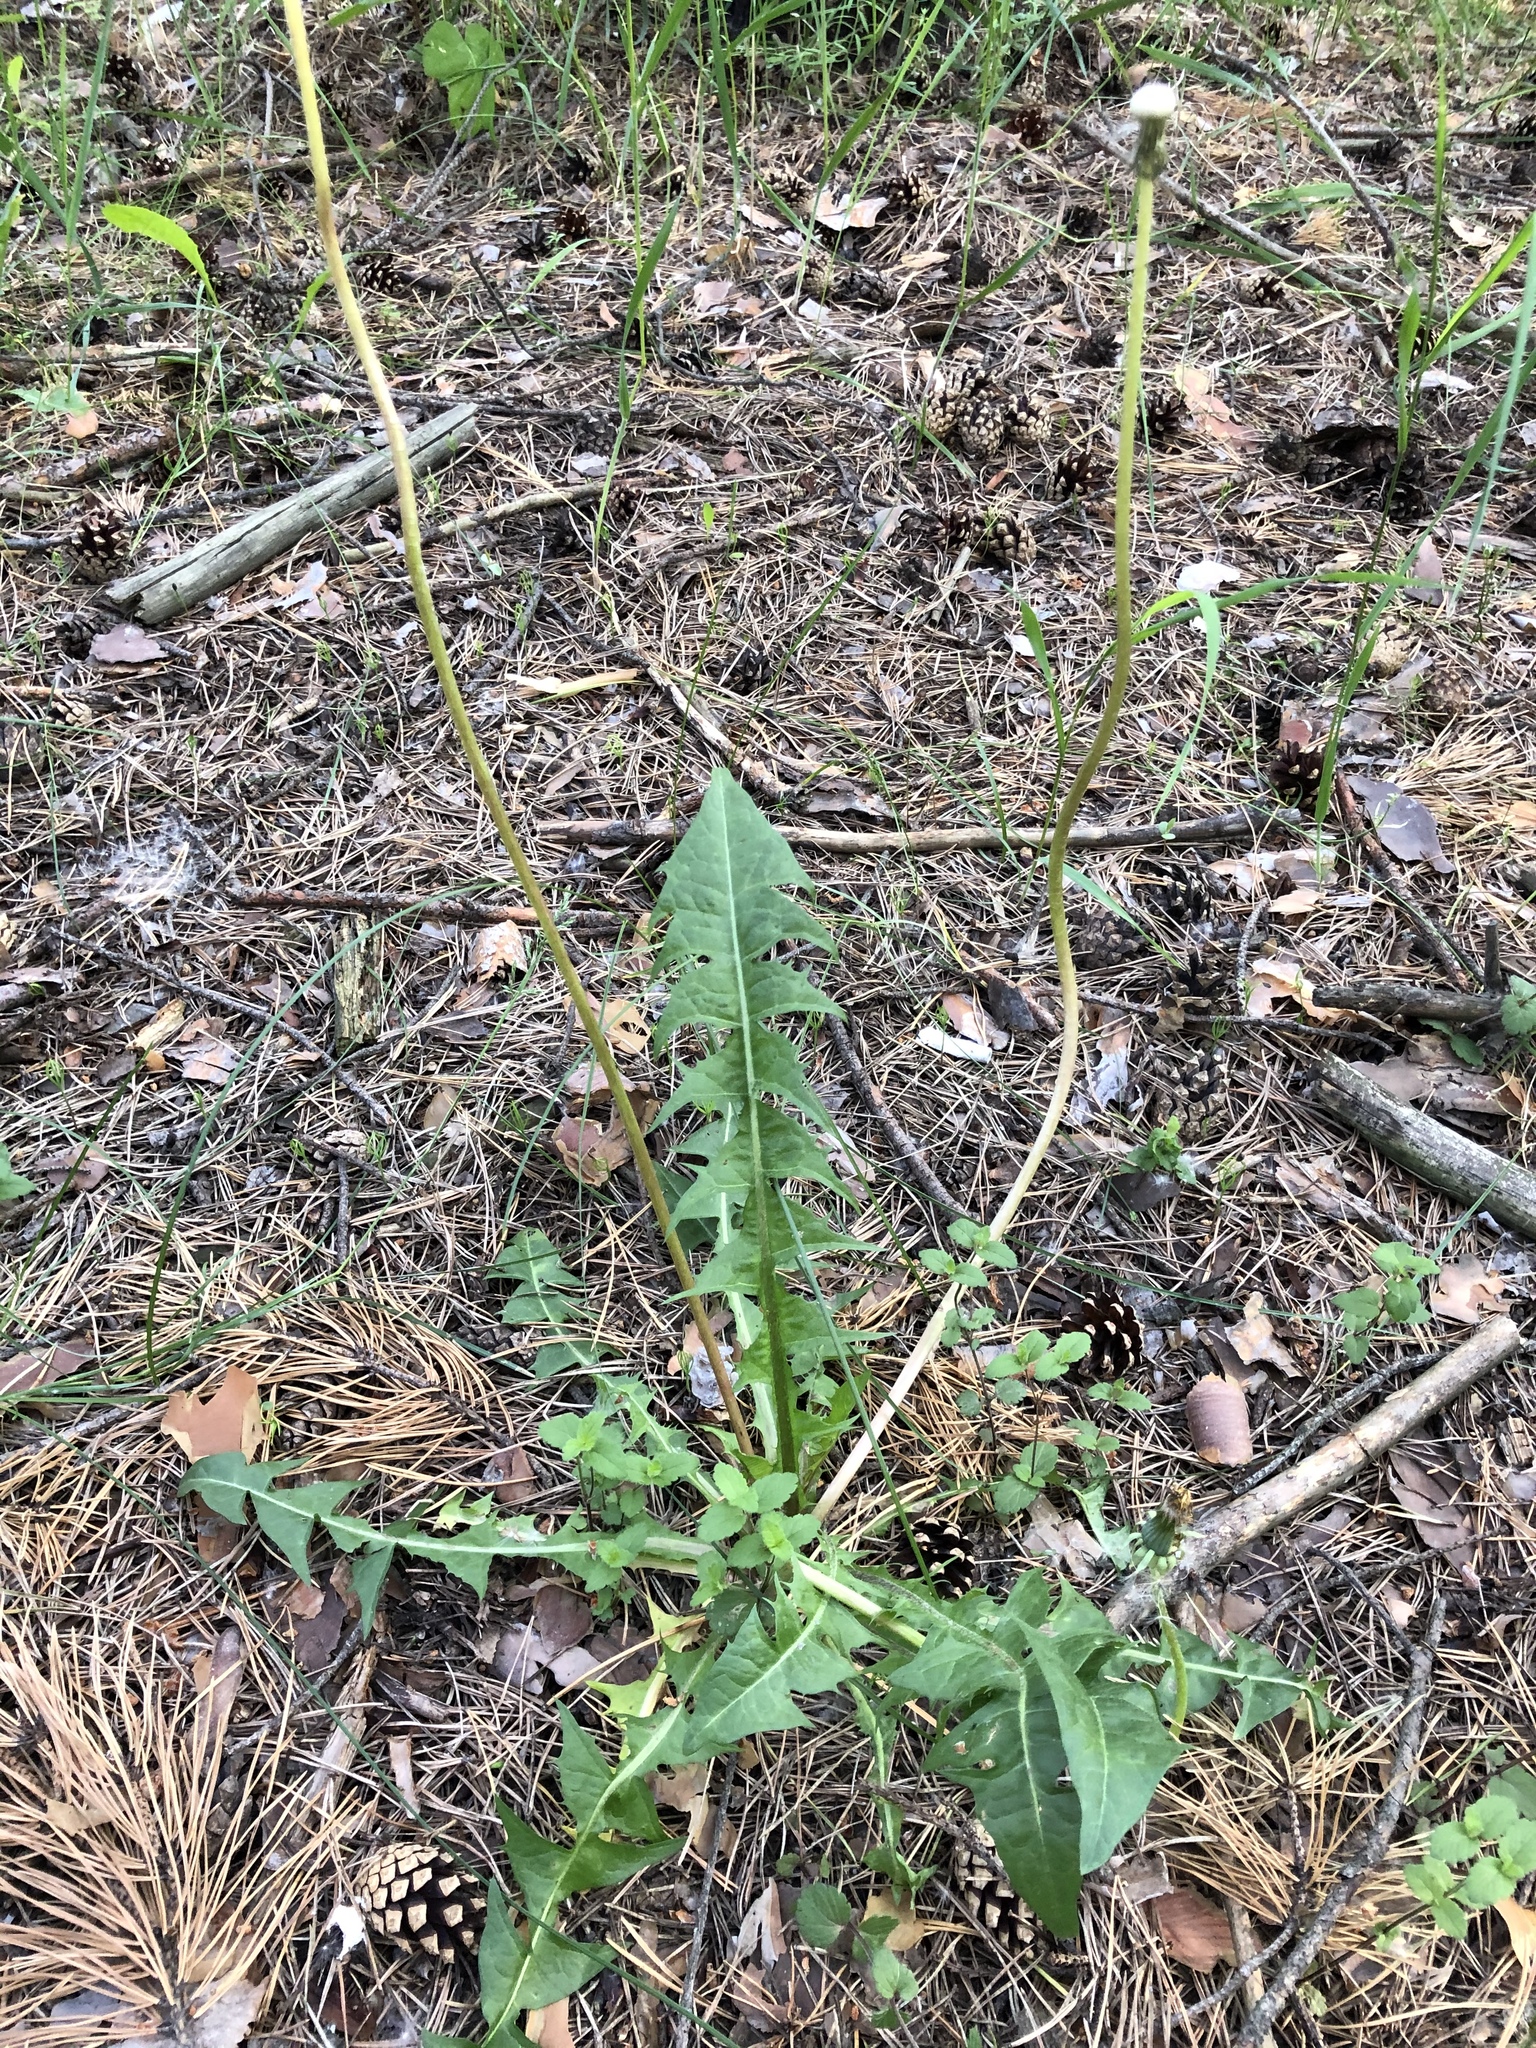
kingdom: Plantae
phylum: Tracheophyta
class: Magnoliopsida
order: Asterales
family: Asteraceae
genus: Taraxacum
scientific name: Taraxacum officinale
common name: Common dandelion
